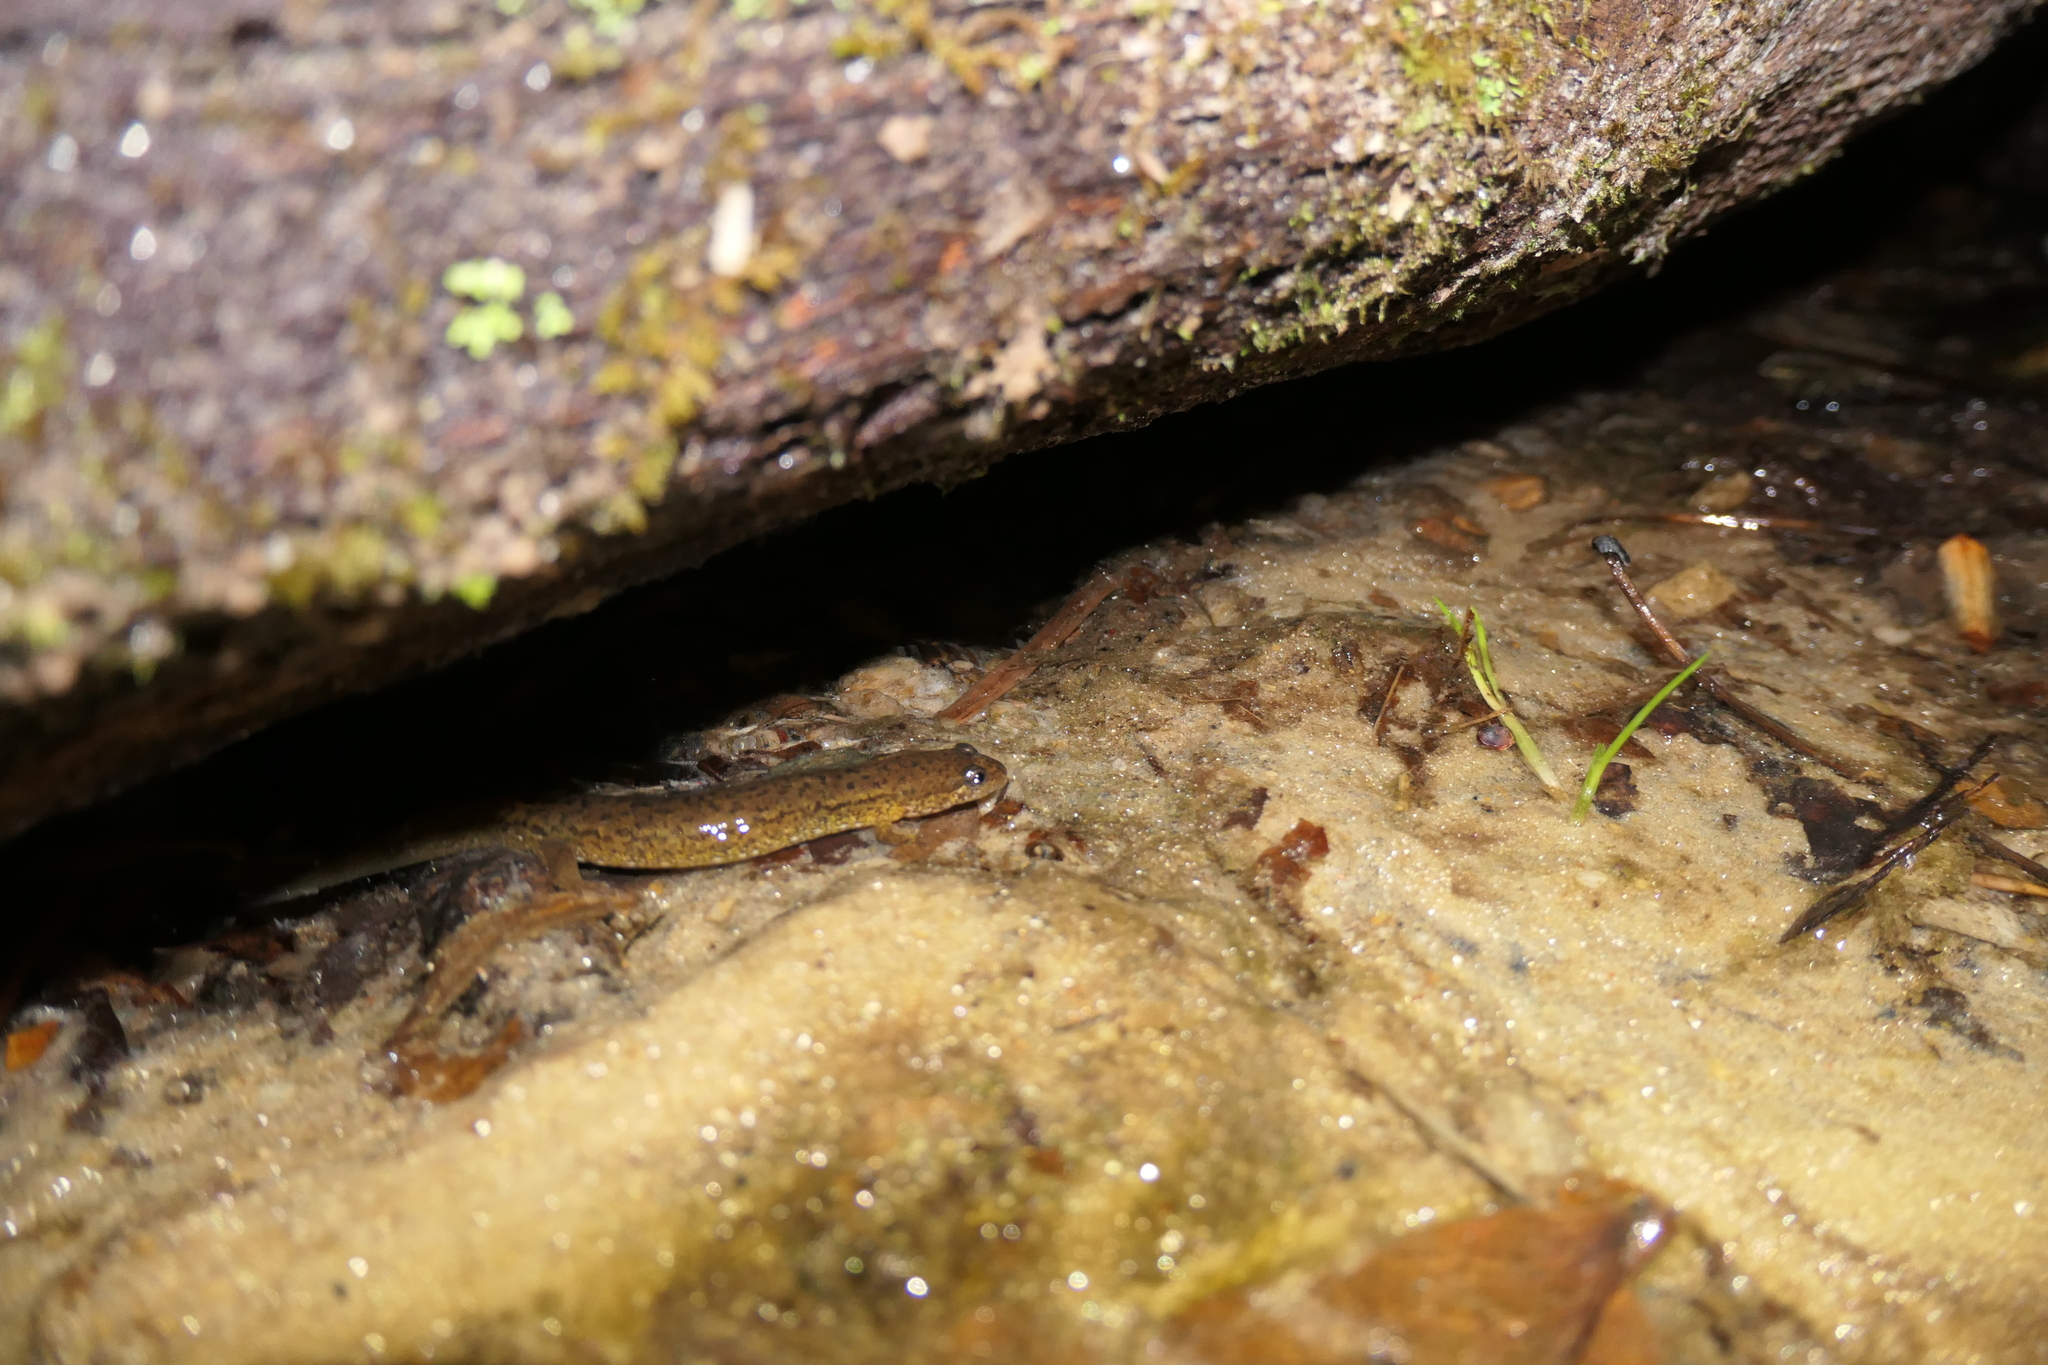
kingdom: Animalia
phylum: Chordata
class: Amphibia
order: Caudata
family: Plethodontidae
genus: Desmognathus
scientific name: Desmognathus fuscus
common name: Northern dusky salamander
